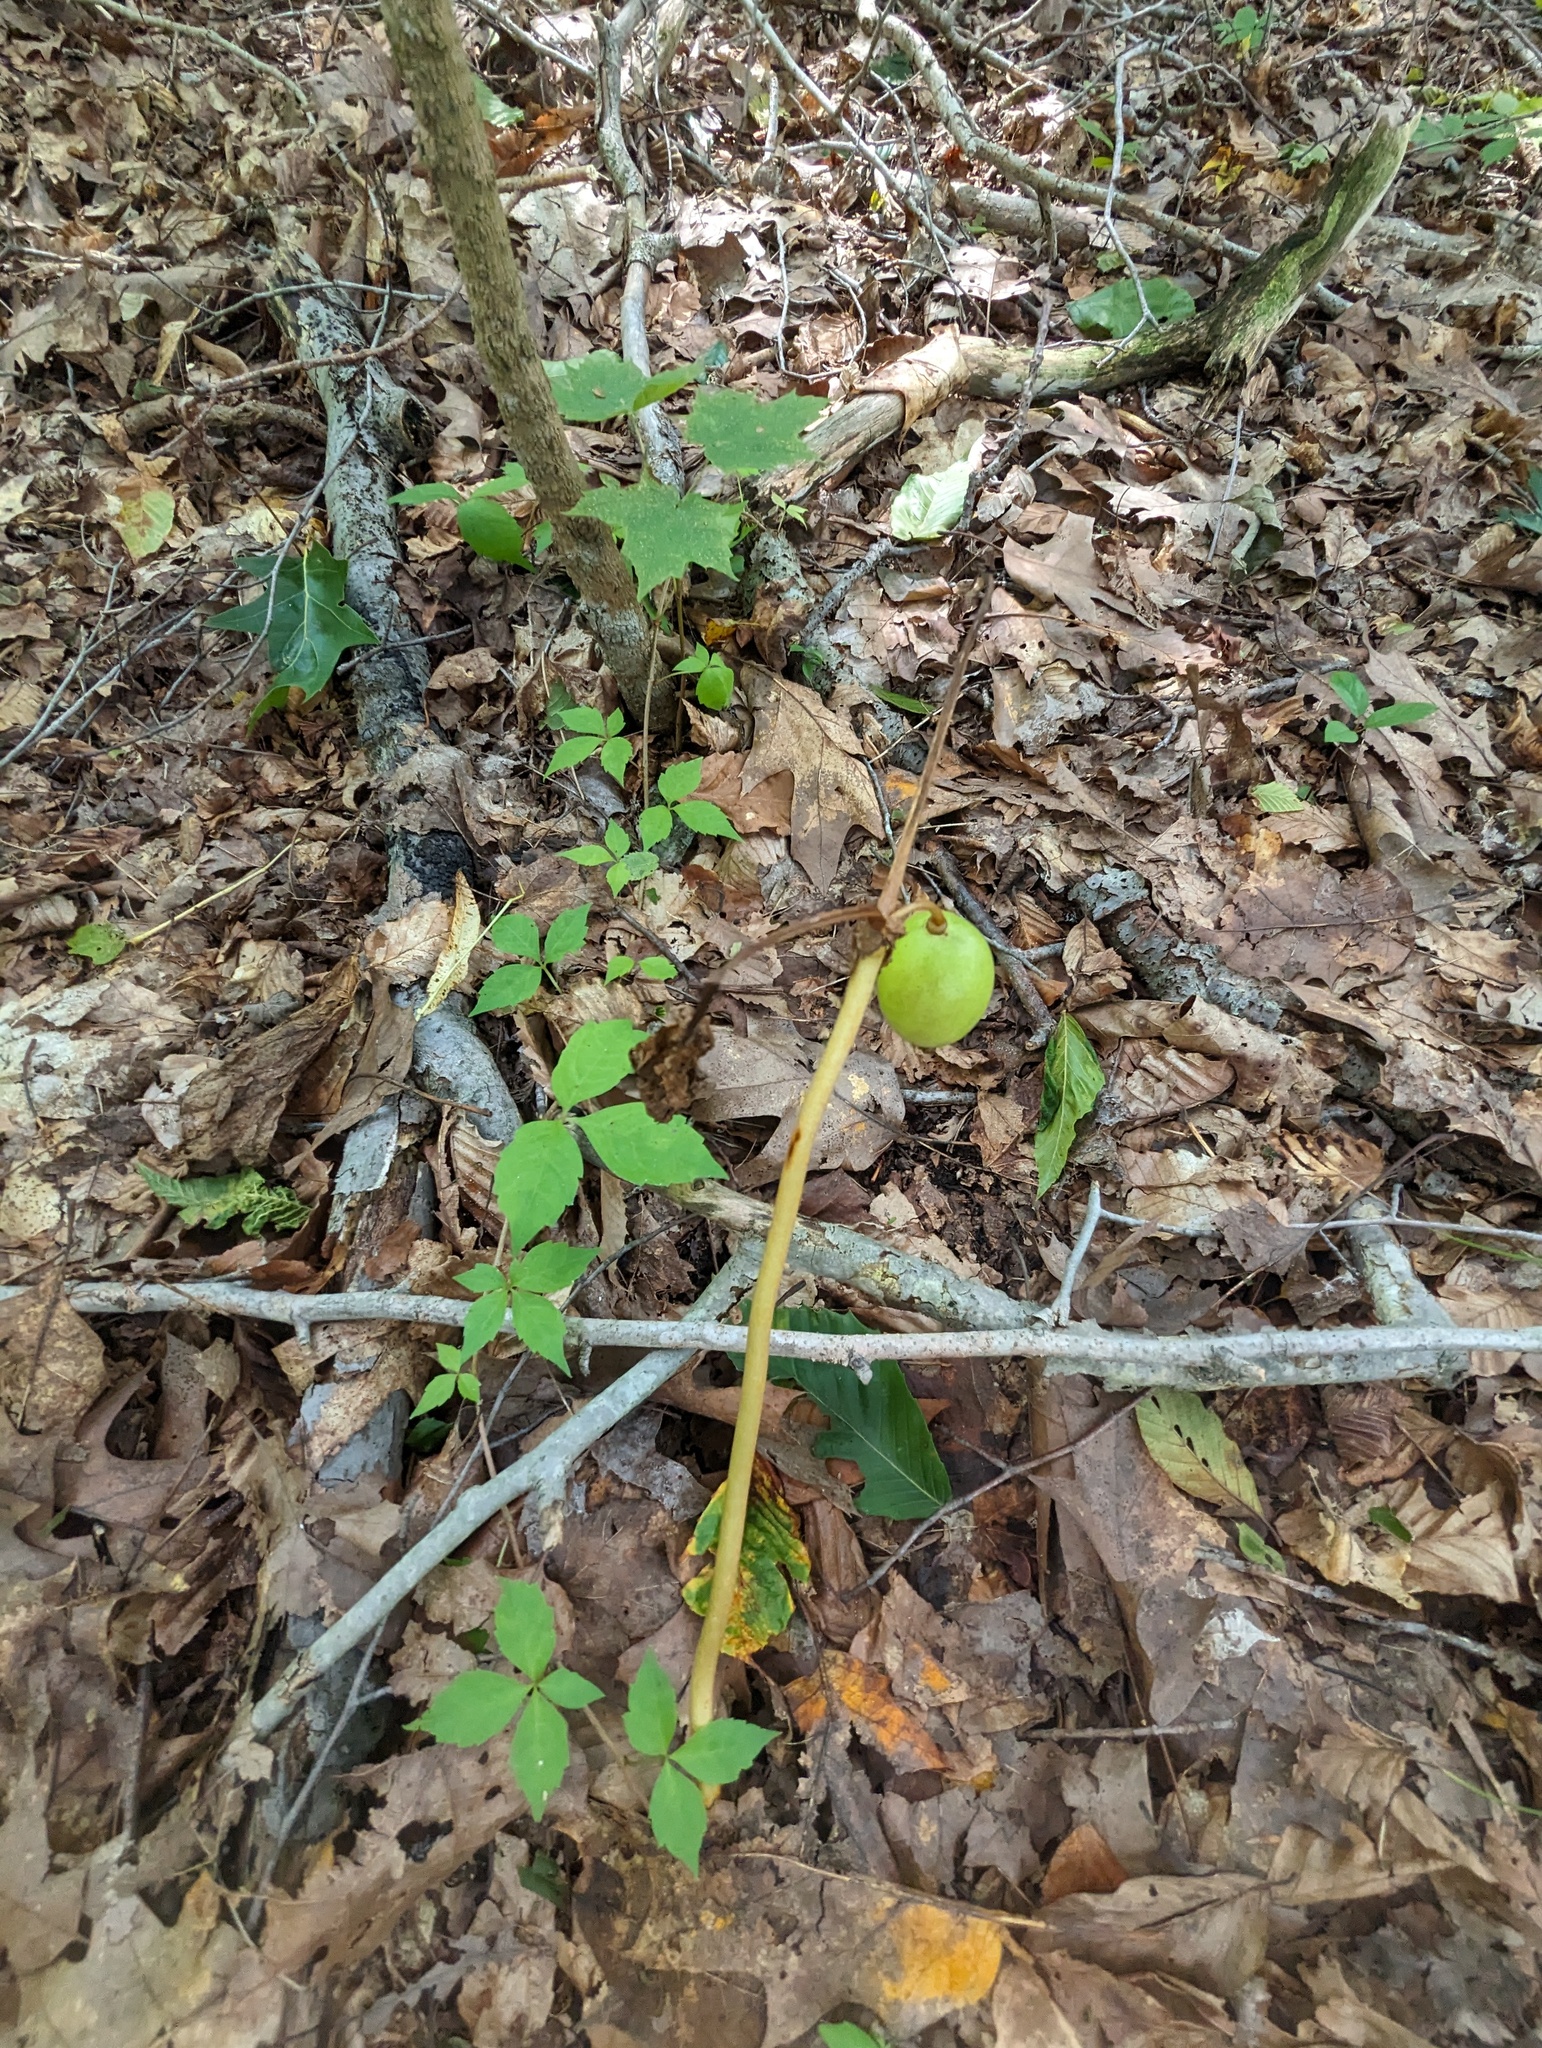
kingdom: Plantae
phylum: Tracheophyta
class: Magnoliopsida
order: Ranunculales
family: Berberidaceae
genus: Podophyllum
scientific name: Podophyllum peltatum
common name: Wild mandrake
